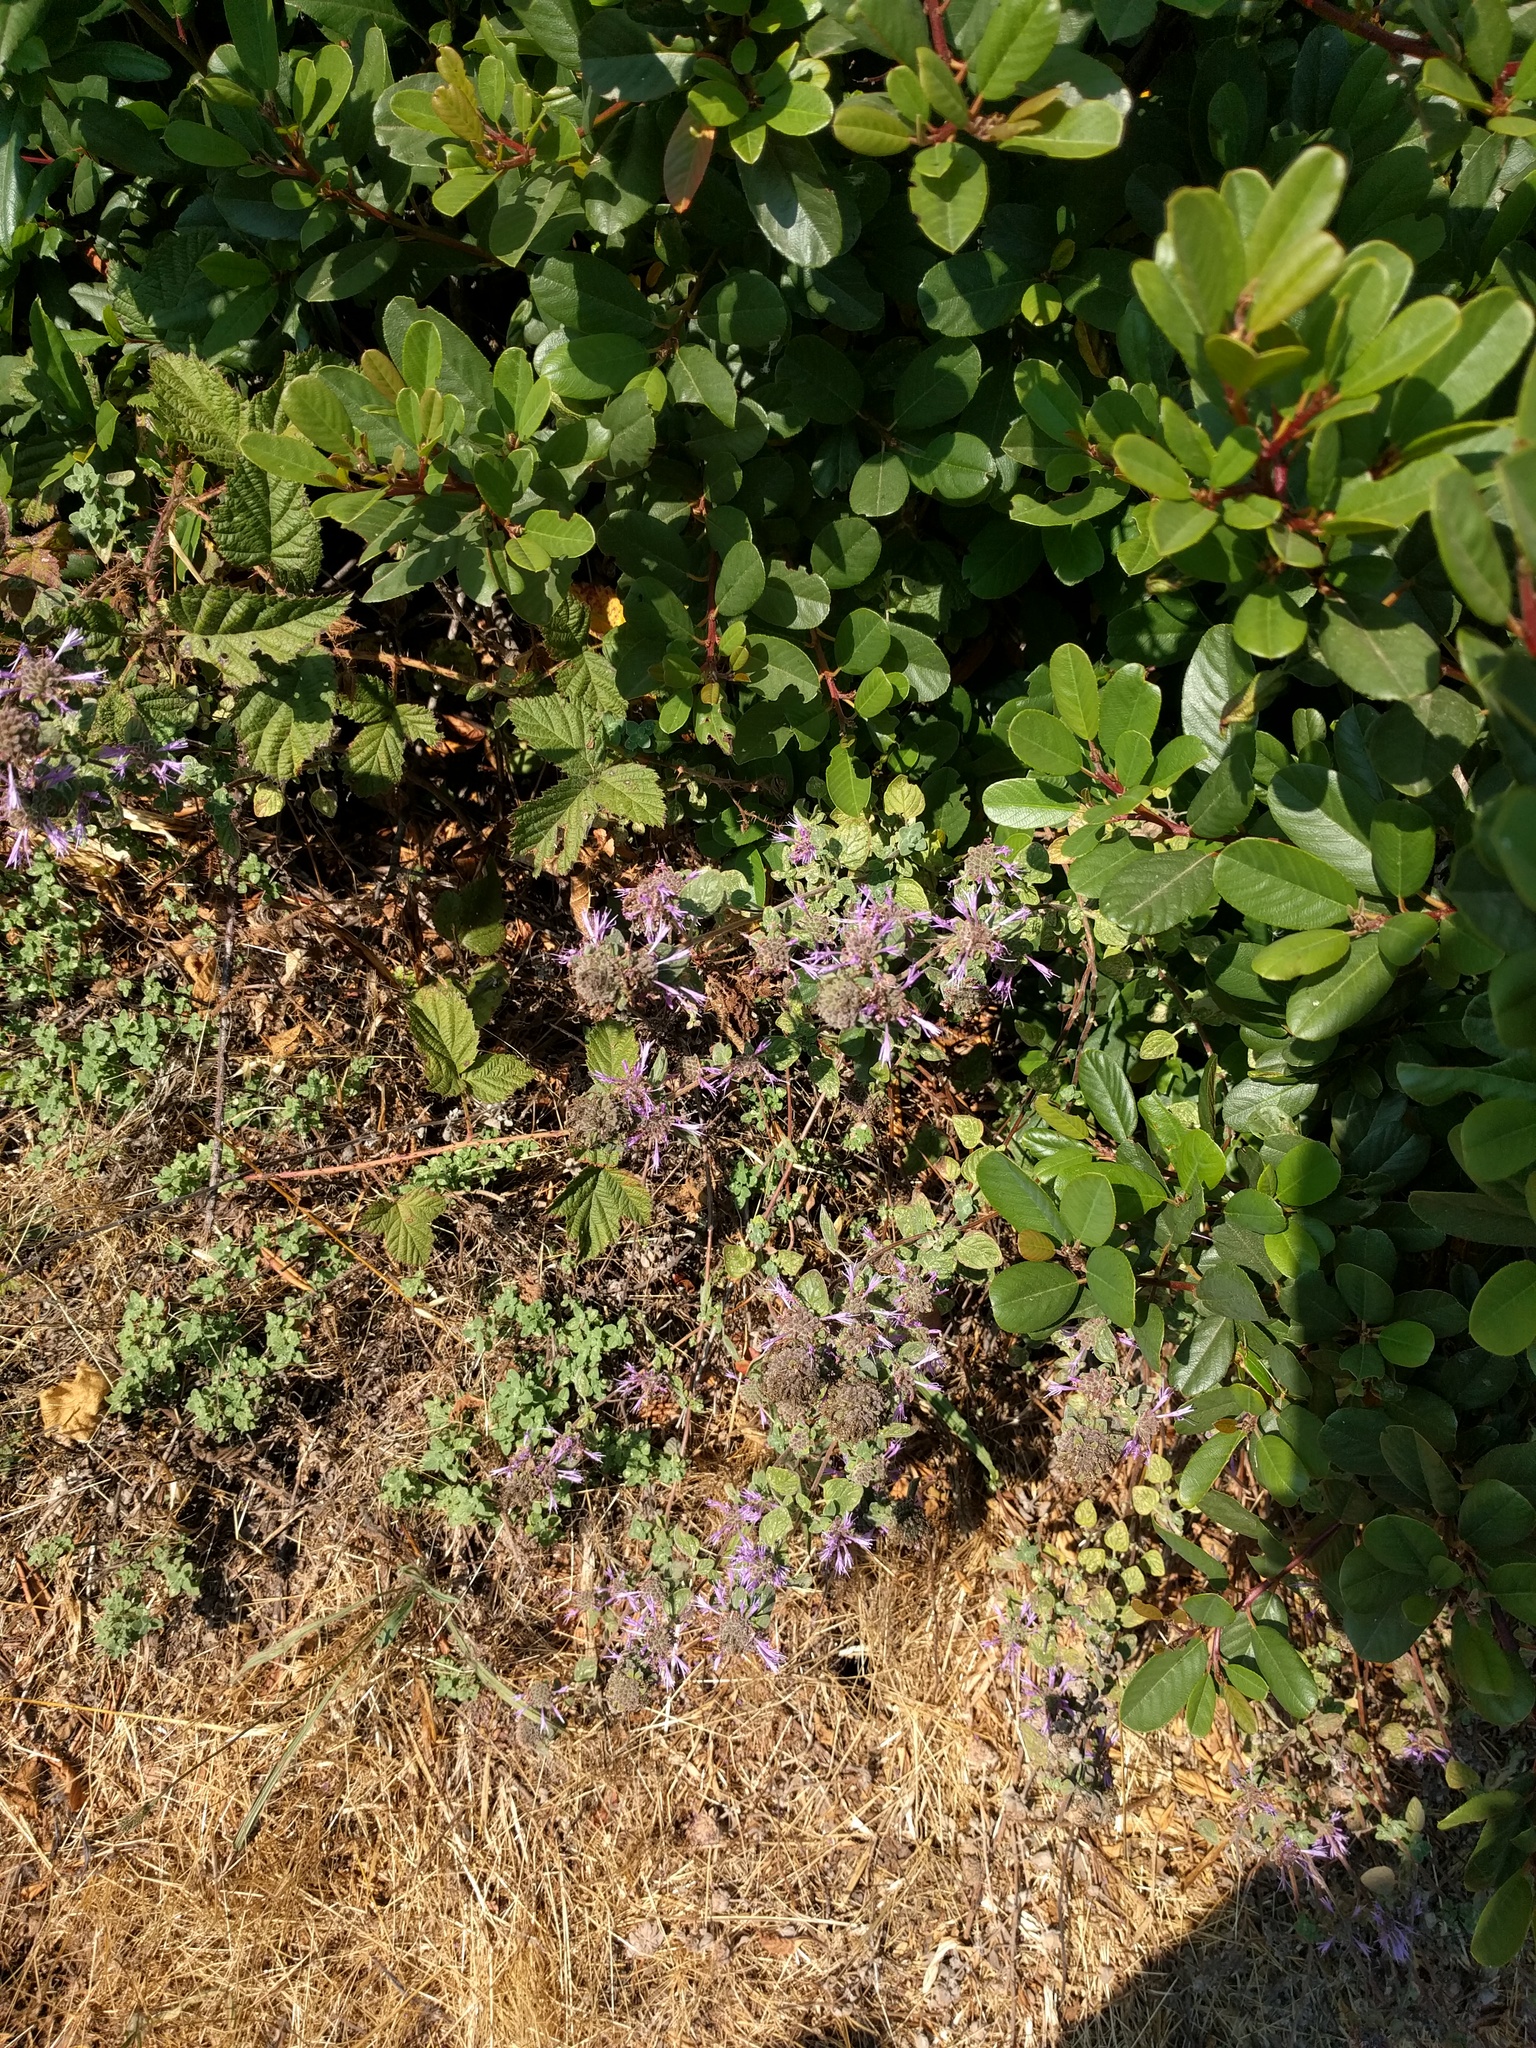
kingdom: Plantae
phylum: Tracheophyta
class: Magnoliopsida
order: Lamiales
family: Lamiaceae
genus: Monardella
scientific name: Monardella odoratissima
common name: Pacific monardella
